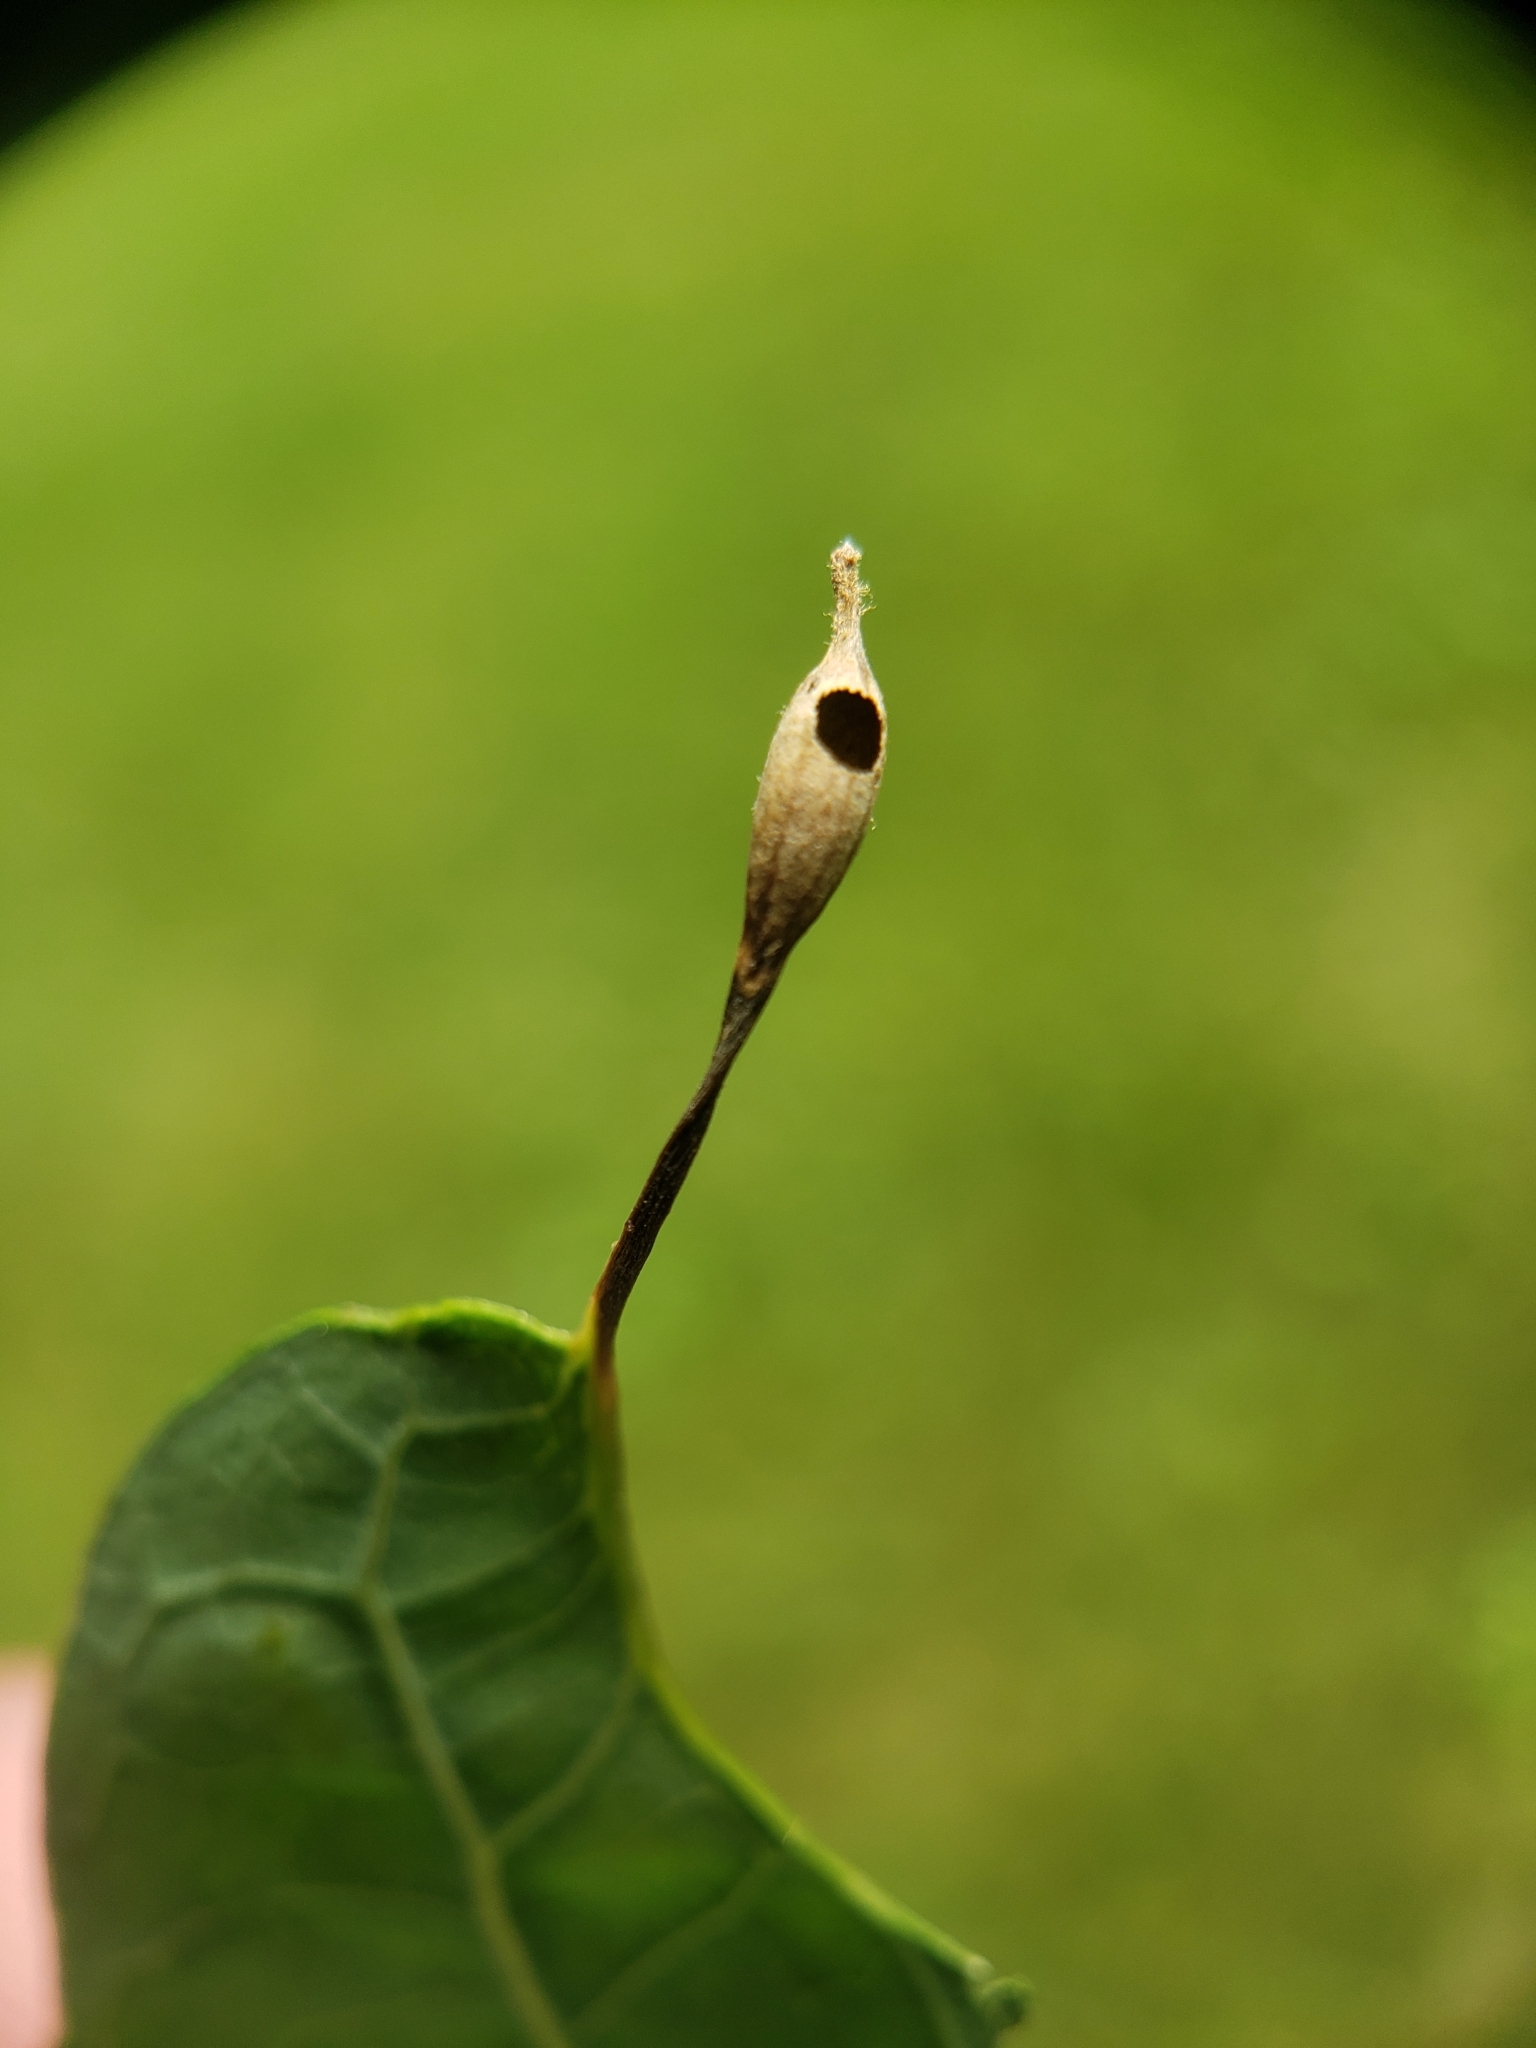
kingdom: Animalia
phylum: Arthropoda
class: Insecta
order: Hymenoptera
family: Cynipidae
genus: Andricus
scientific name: Andricus
